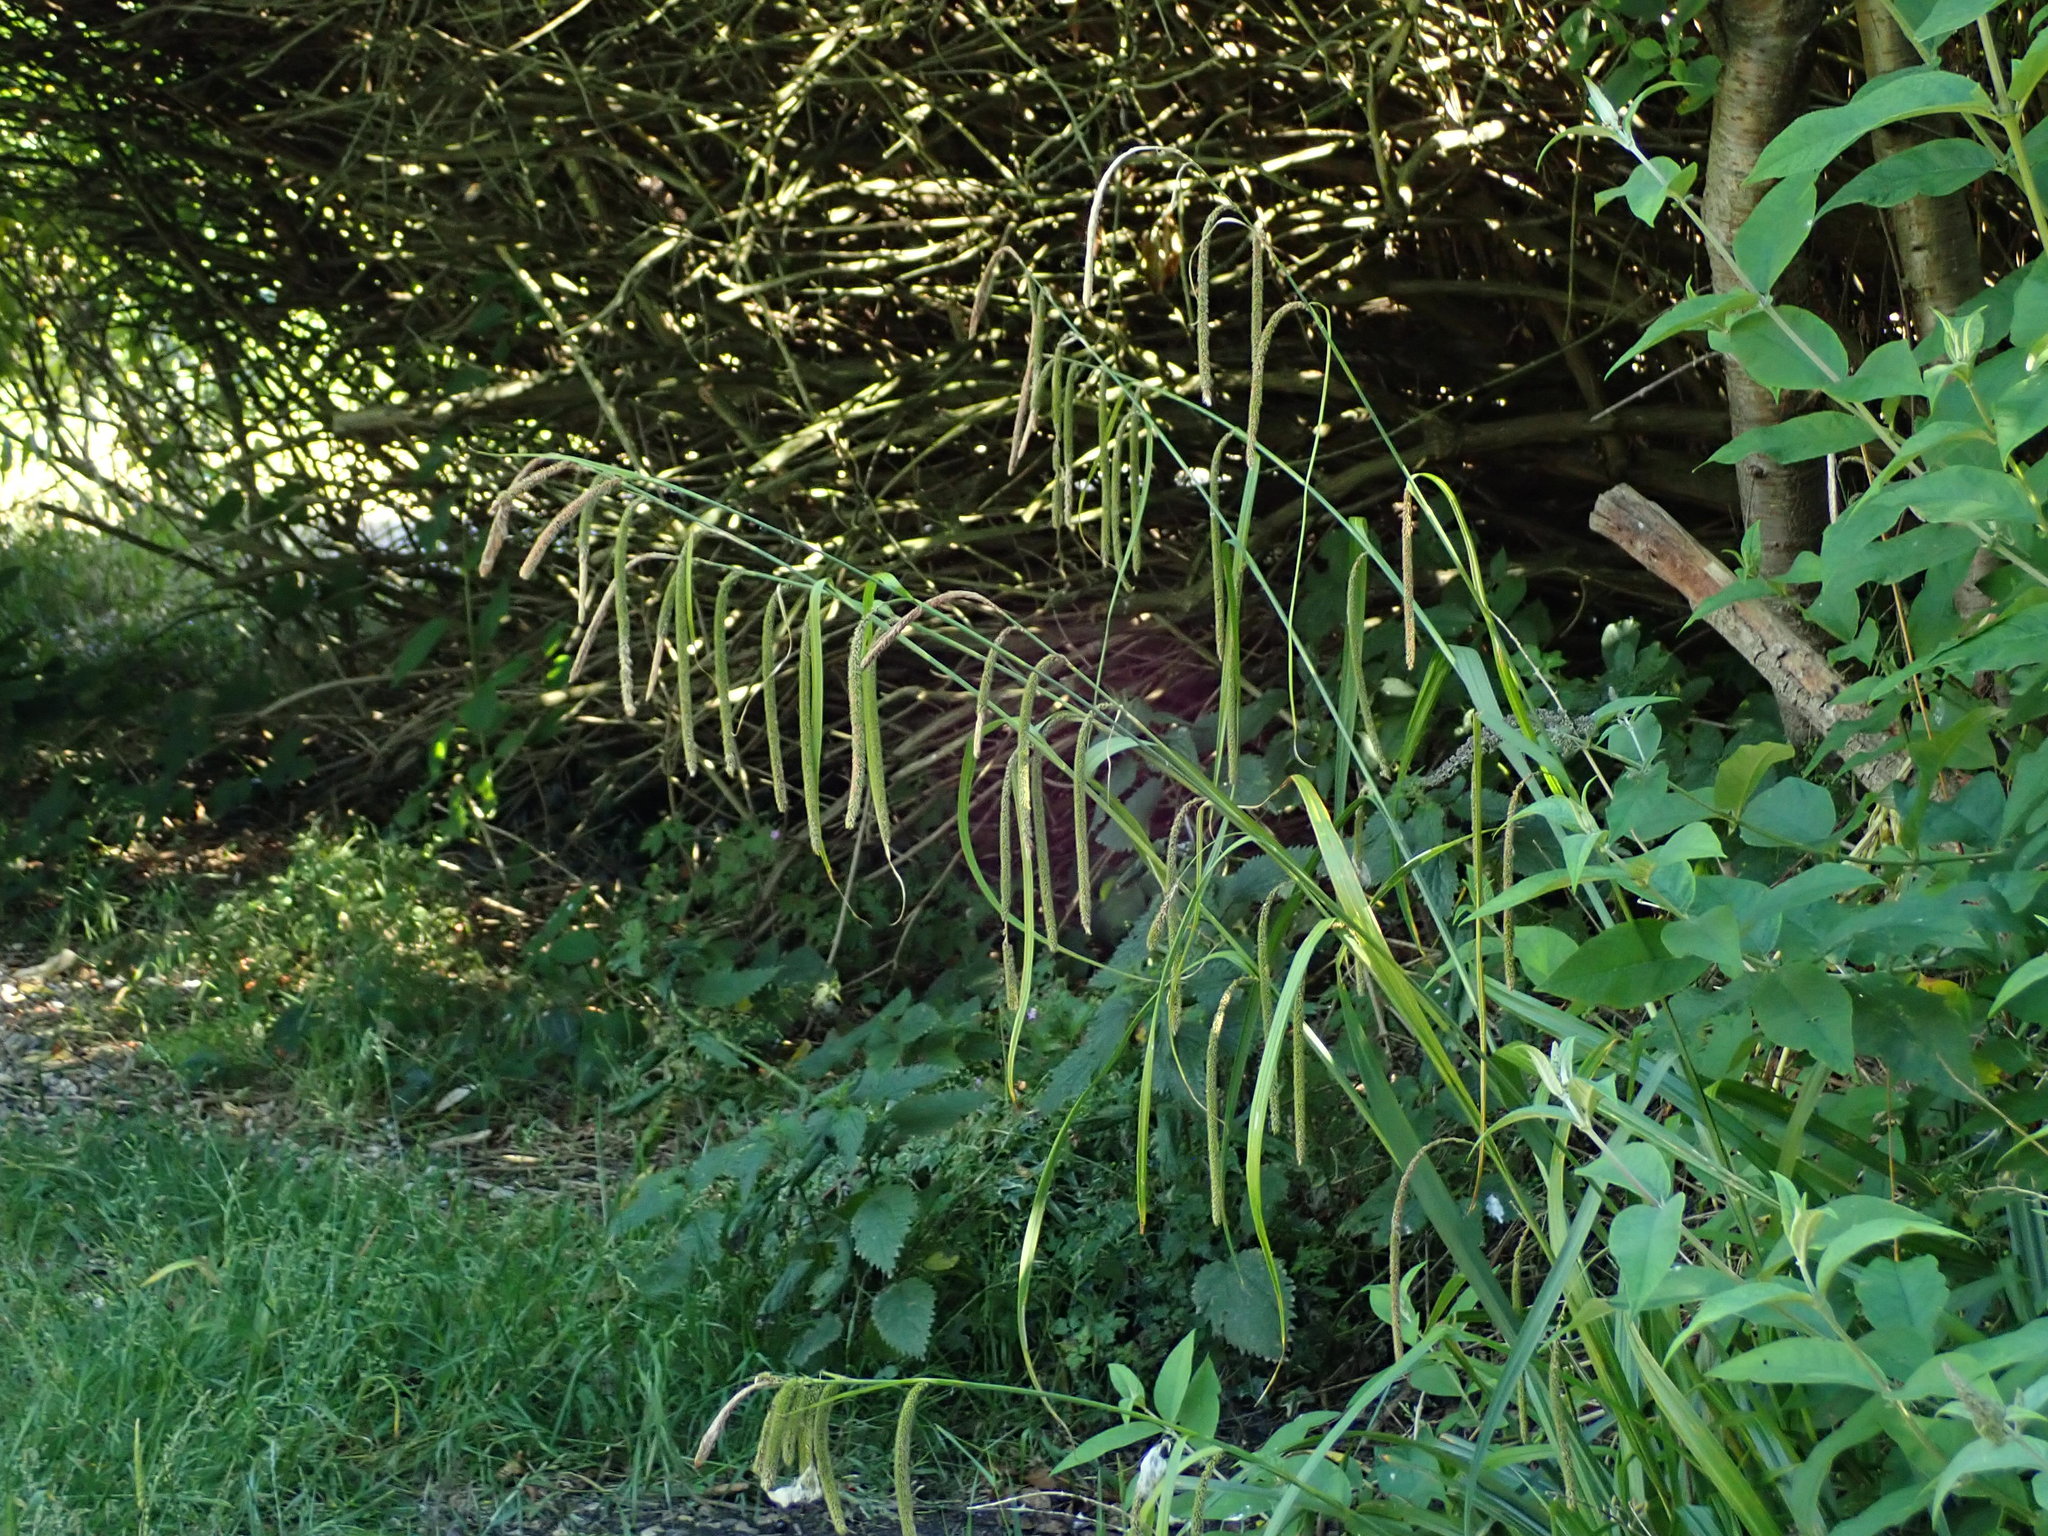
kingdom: Plantae
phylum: Tracheophyta
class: Liliopsida
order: Poales
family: Cyperaceae
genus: Carex
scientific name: Carex pendula
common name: Pendulous sedge
